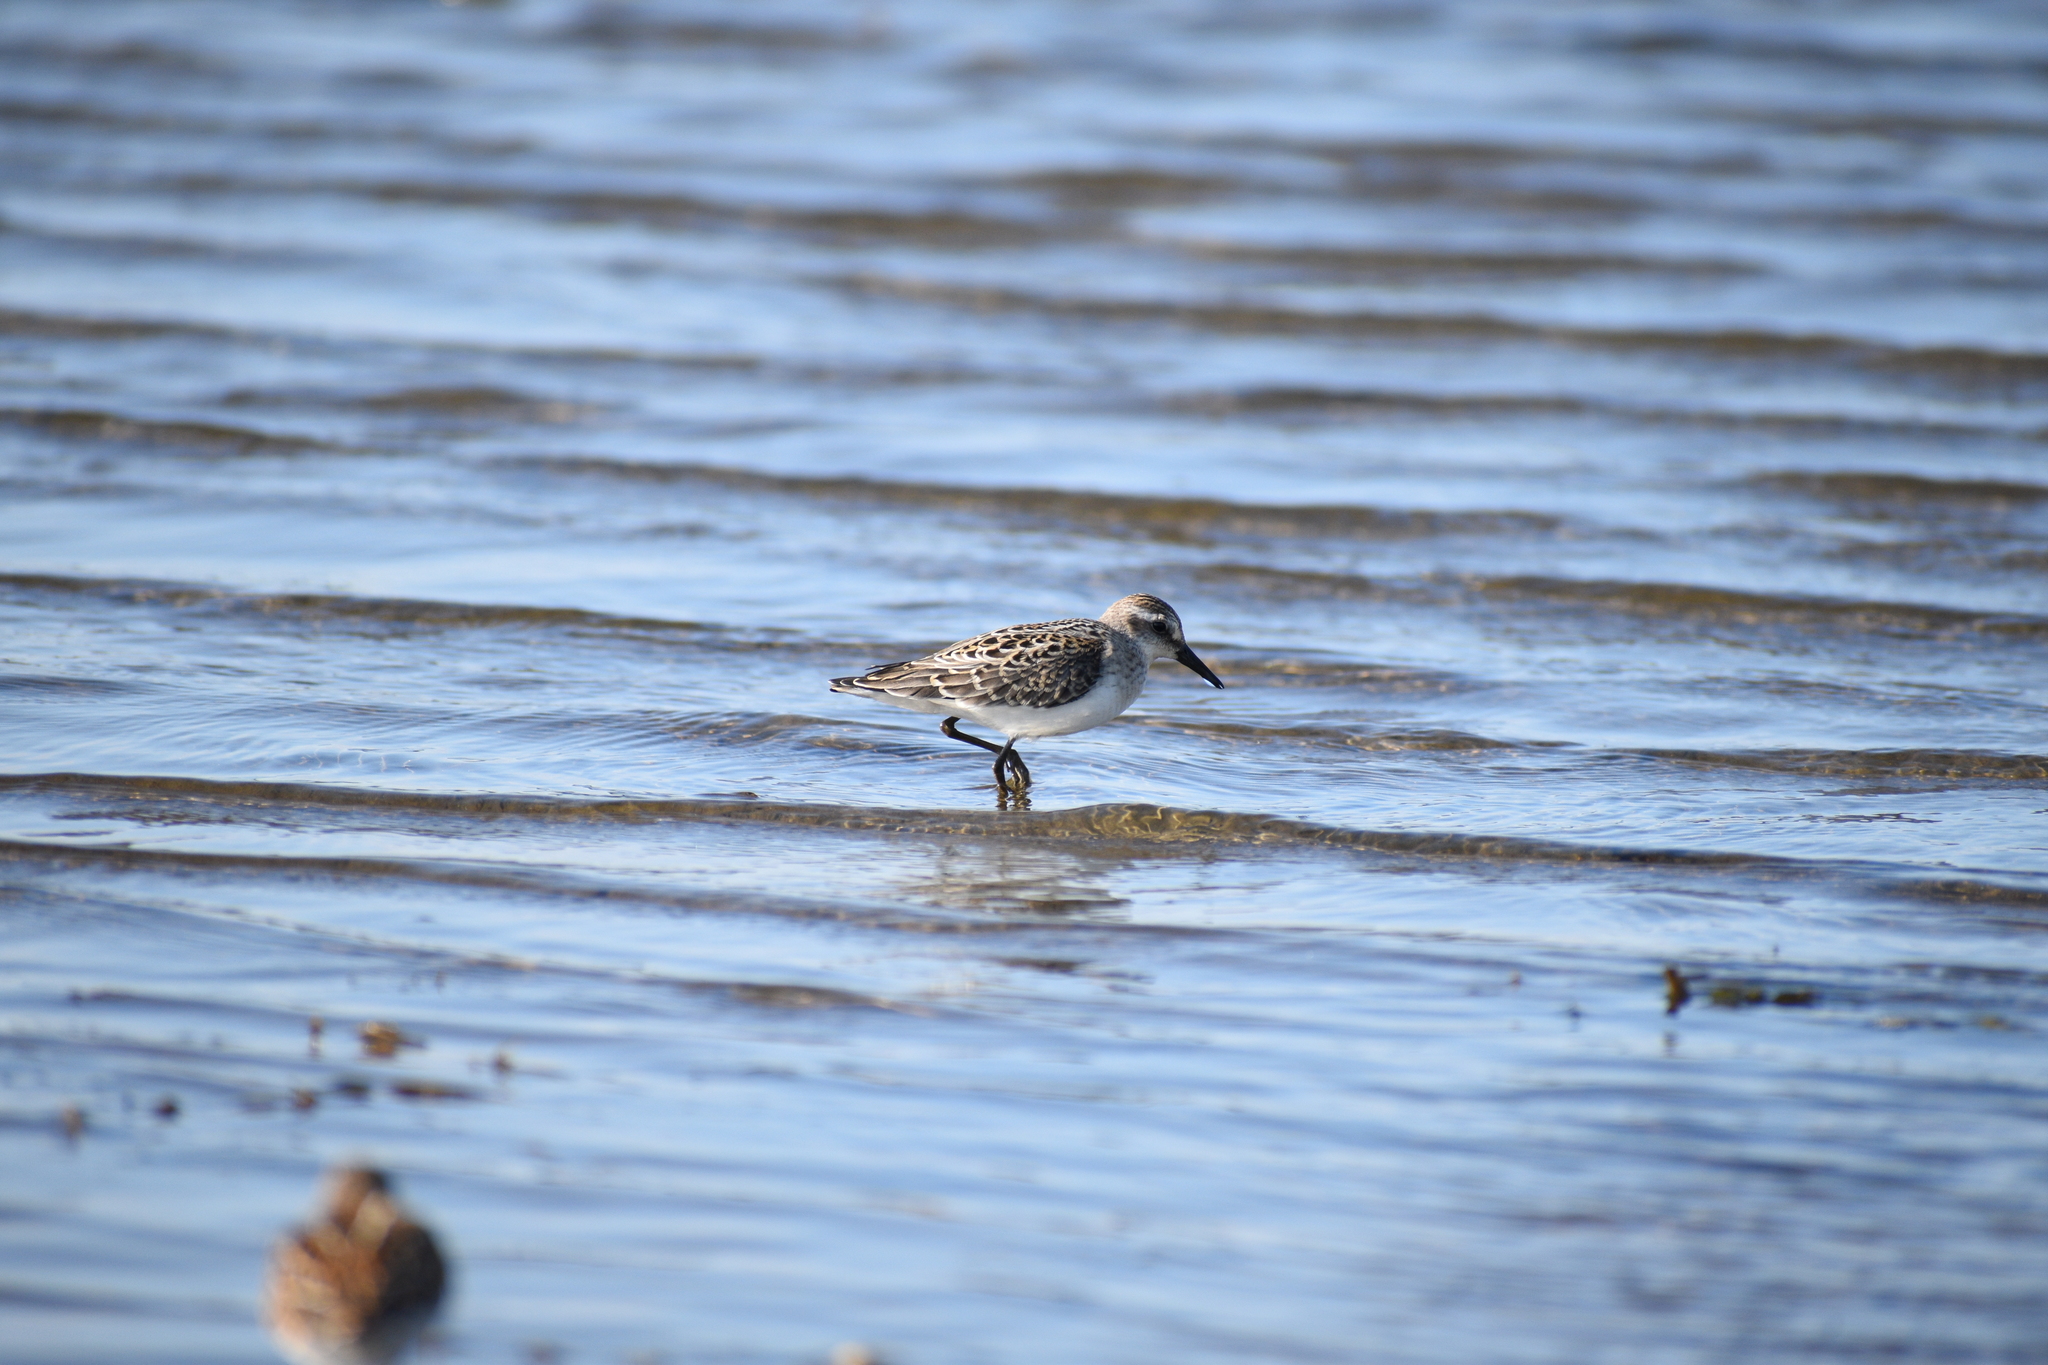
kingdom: Animalia
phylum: Chordata
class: Aves
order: Charadriiformes
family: Scolopacidae
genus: Calidris
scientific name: Calidris pusilla
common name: Semipalmated sandpiper
